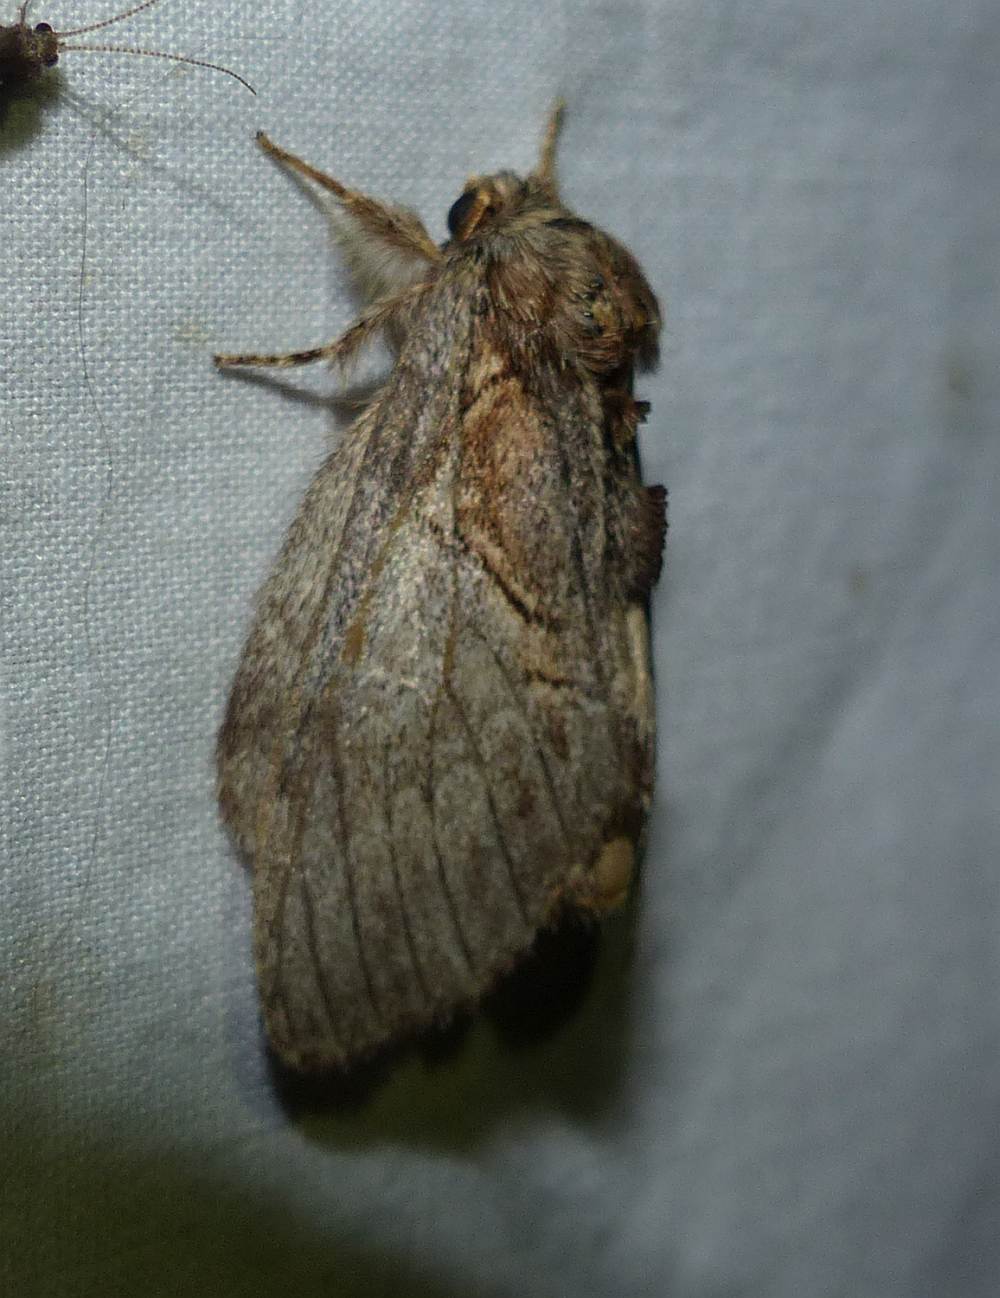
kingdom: Animalia
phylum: Arthropoda
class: Insecta
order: Lepidoptera
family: Notodontidae
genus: Peridea
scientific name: Peridea basitriens
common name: Oval-based prominent
